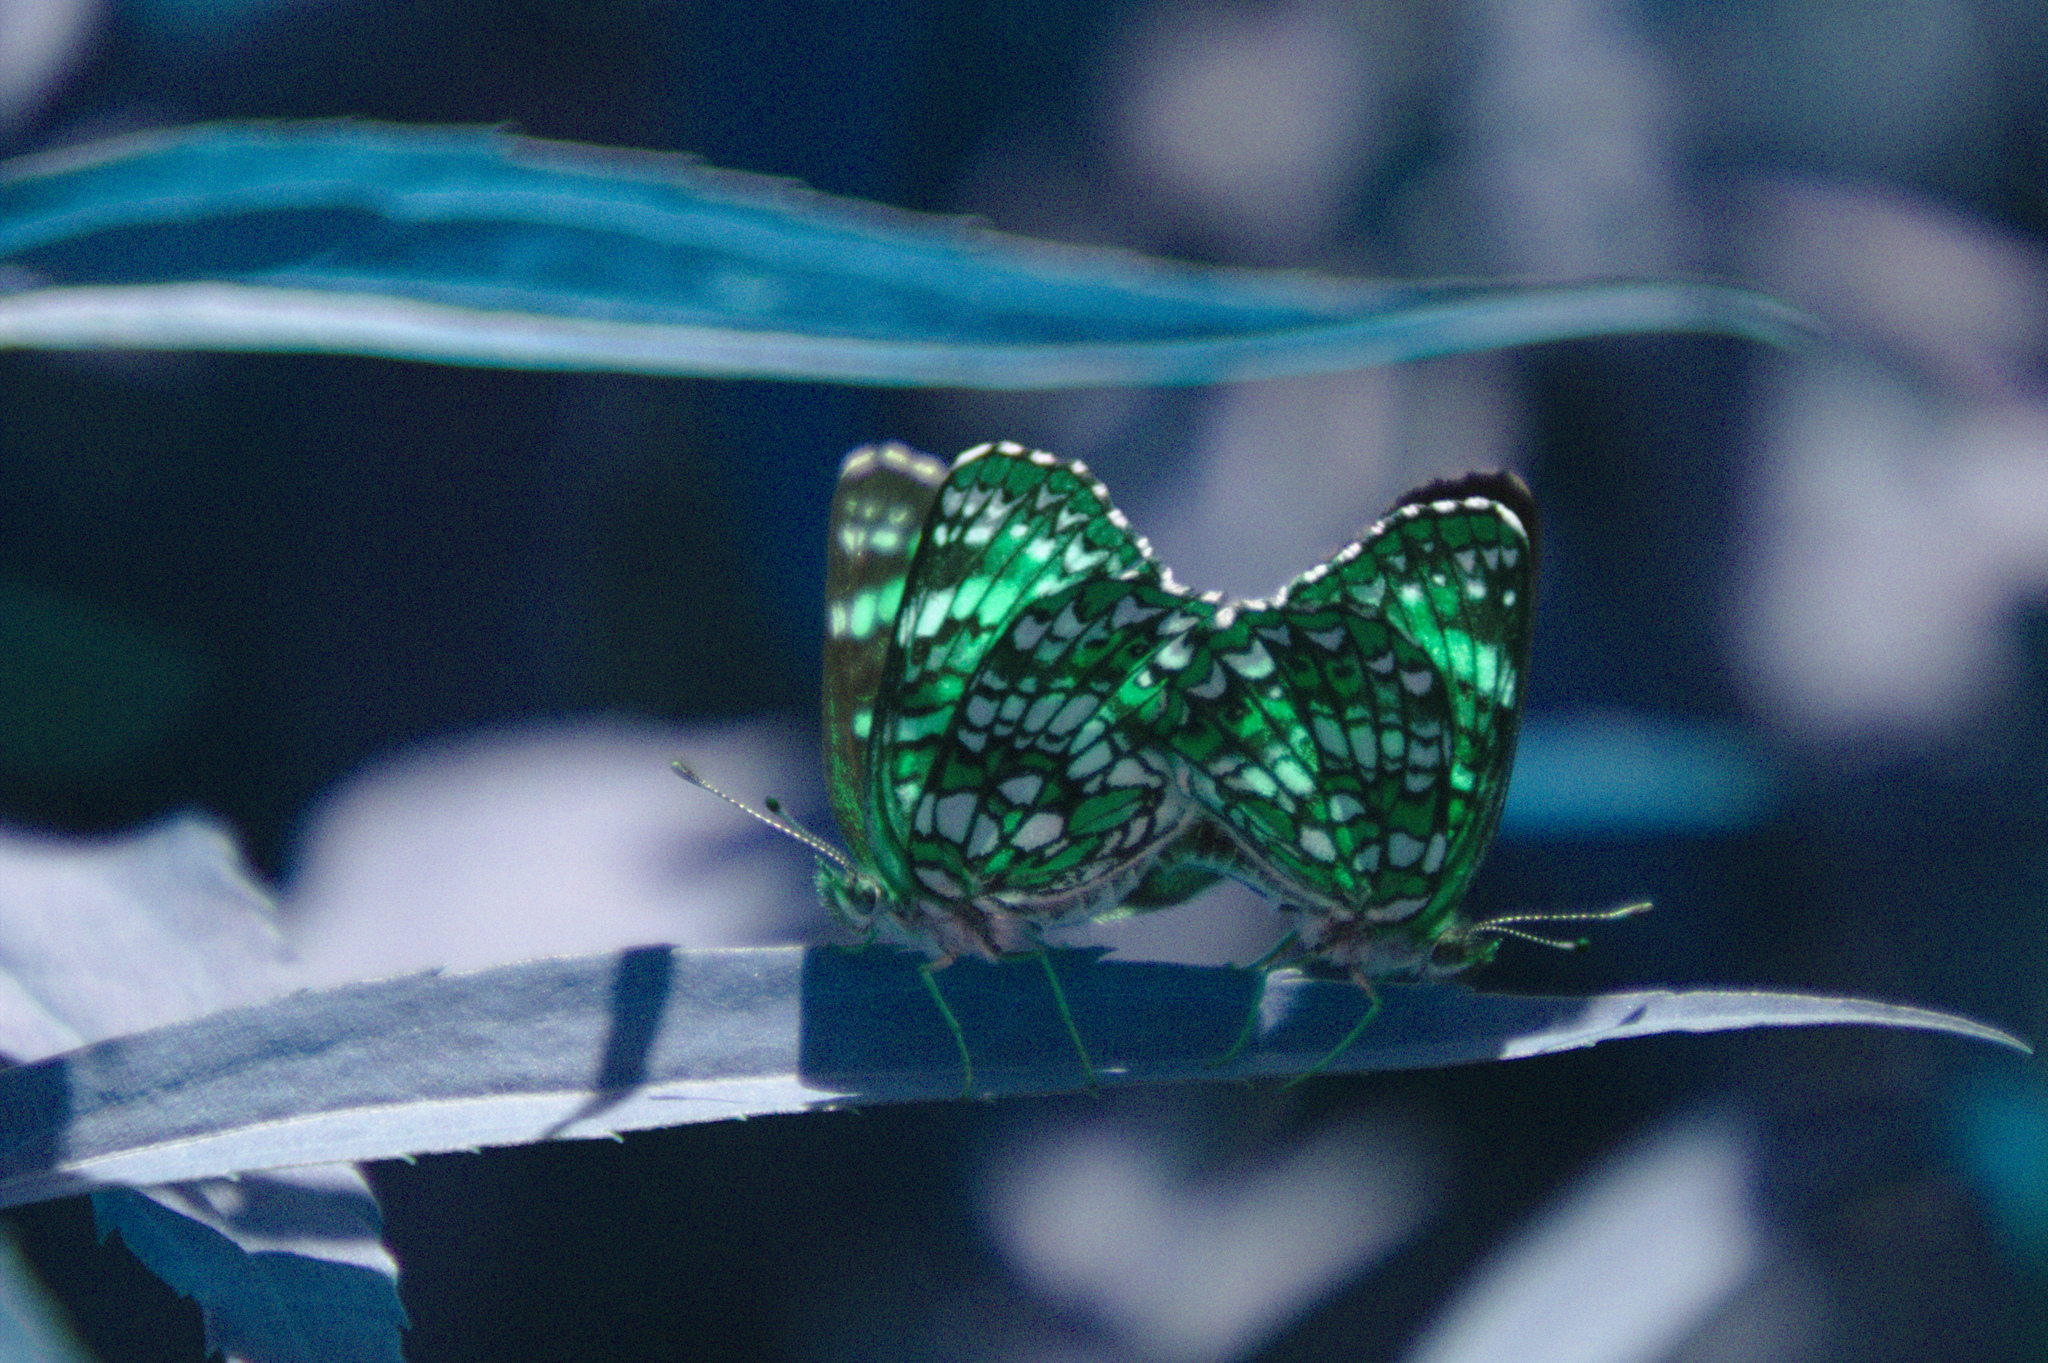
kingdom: Animalia
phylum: Arthropoda
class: Insecta
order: Lepidoptera
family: Nymphalidae
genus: Chlosyne
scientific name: Chlosyne harrisii
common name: Harris's checkerspot
